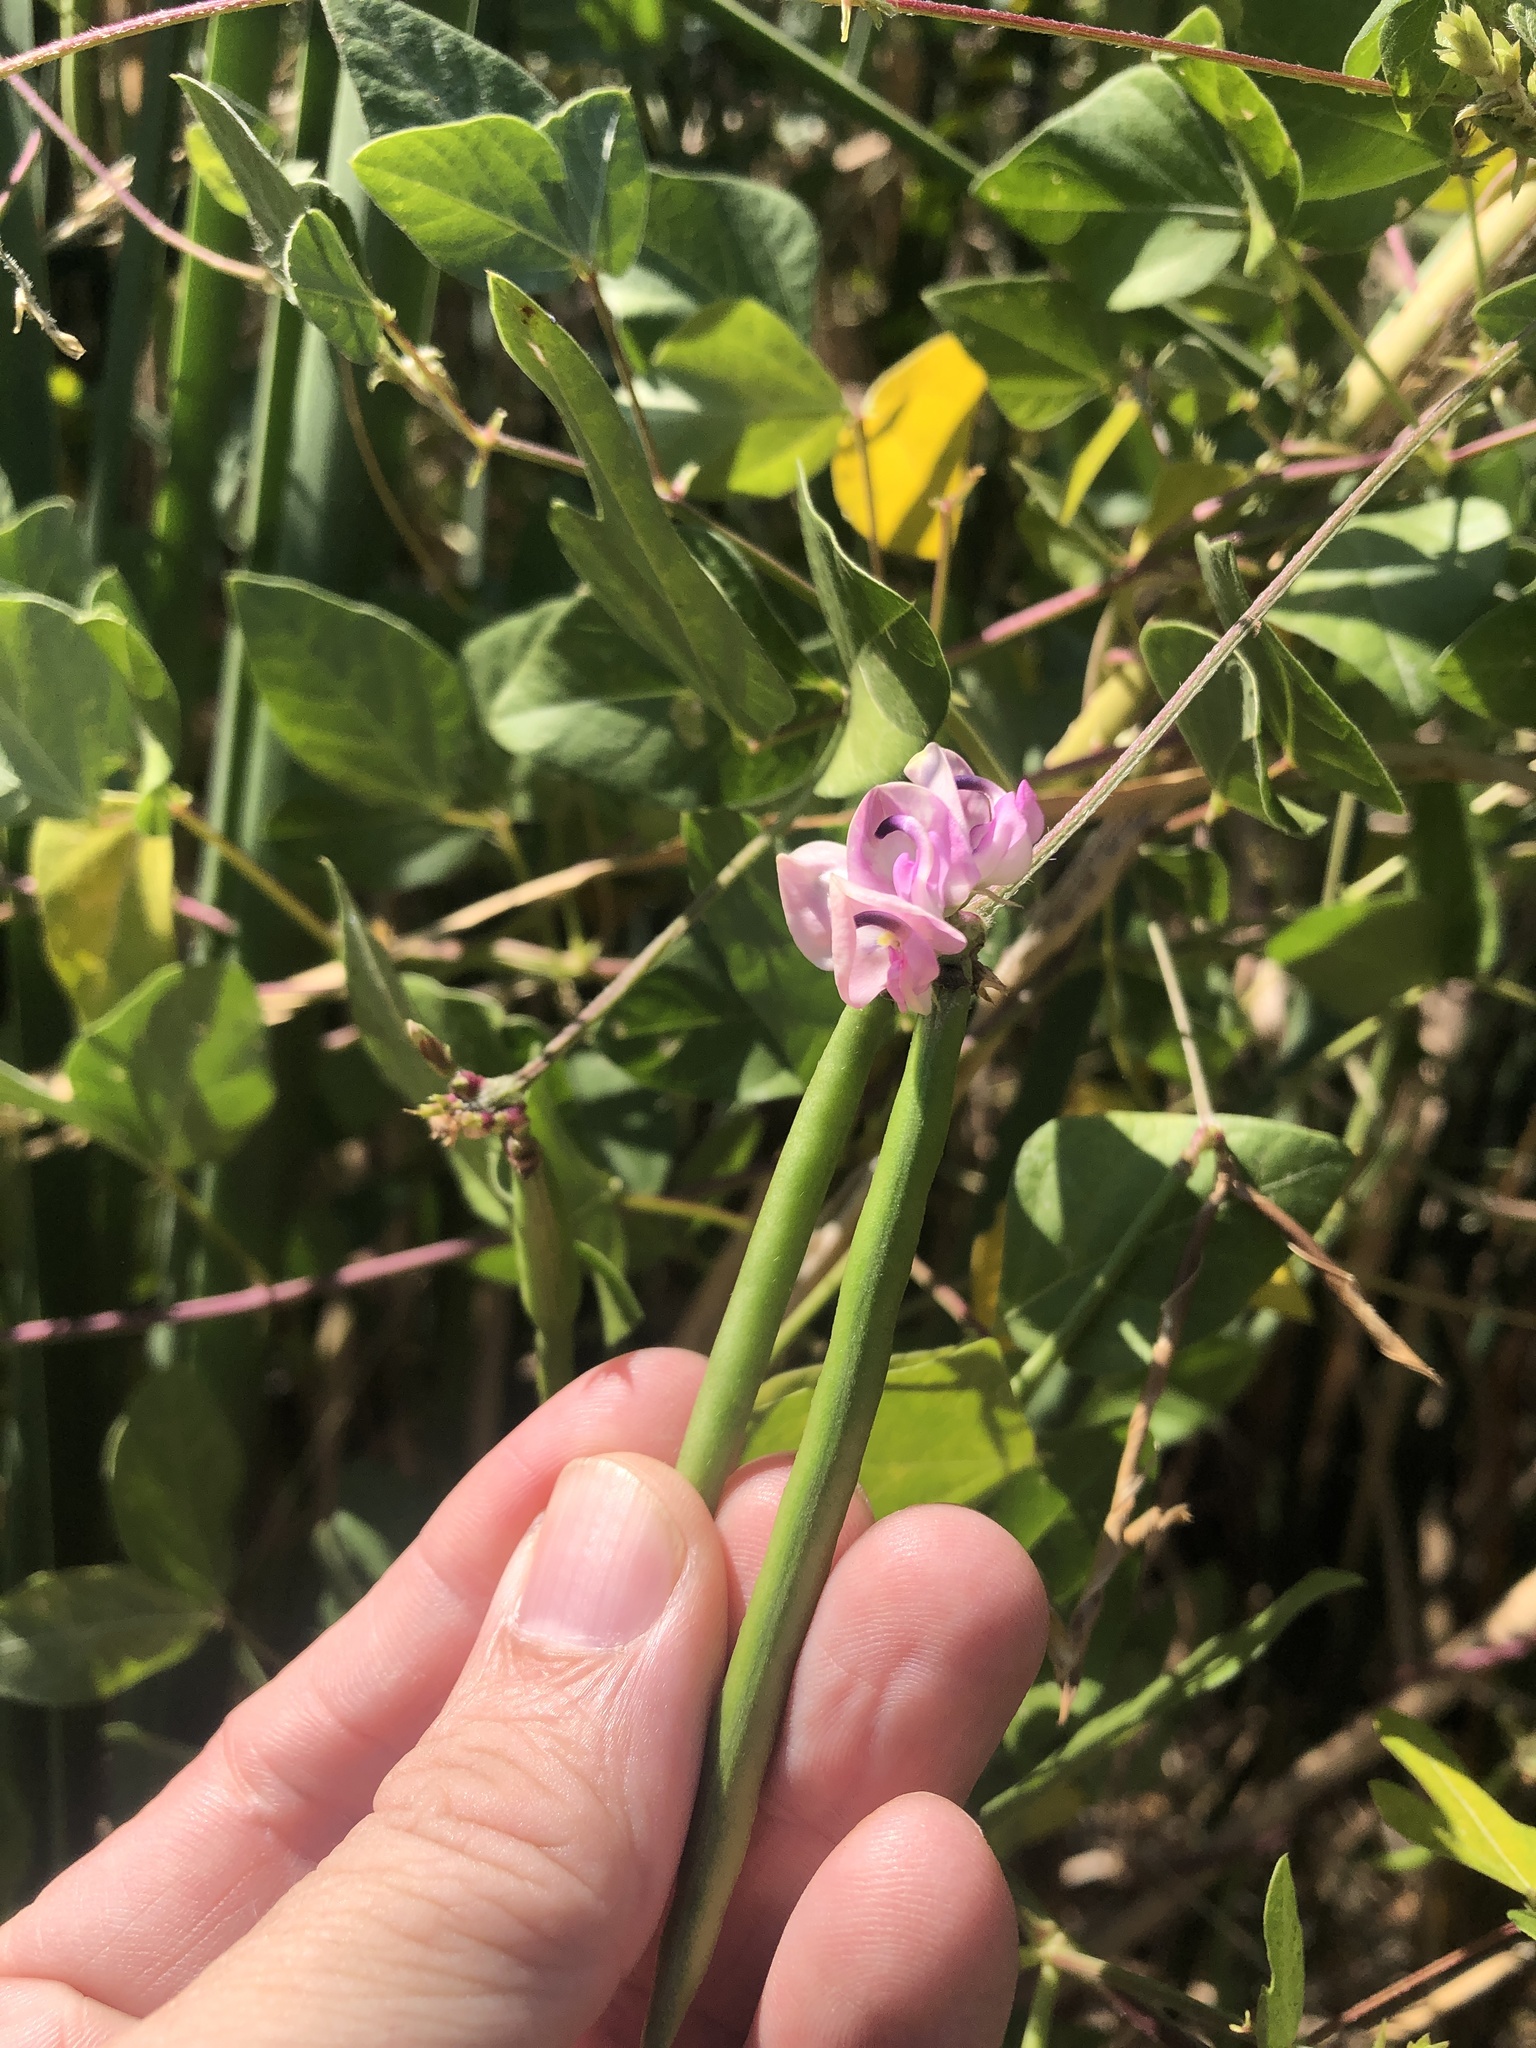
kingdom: Plantae
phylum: Tracheophyta
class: Magnoliopsida
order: Fabales
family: Fabaceae
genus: Strophostyles
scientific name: Strophostyles helvola
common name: Trailing wild bean
